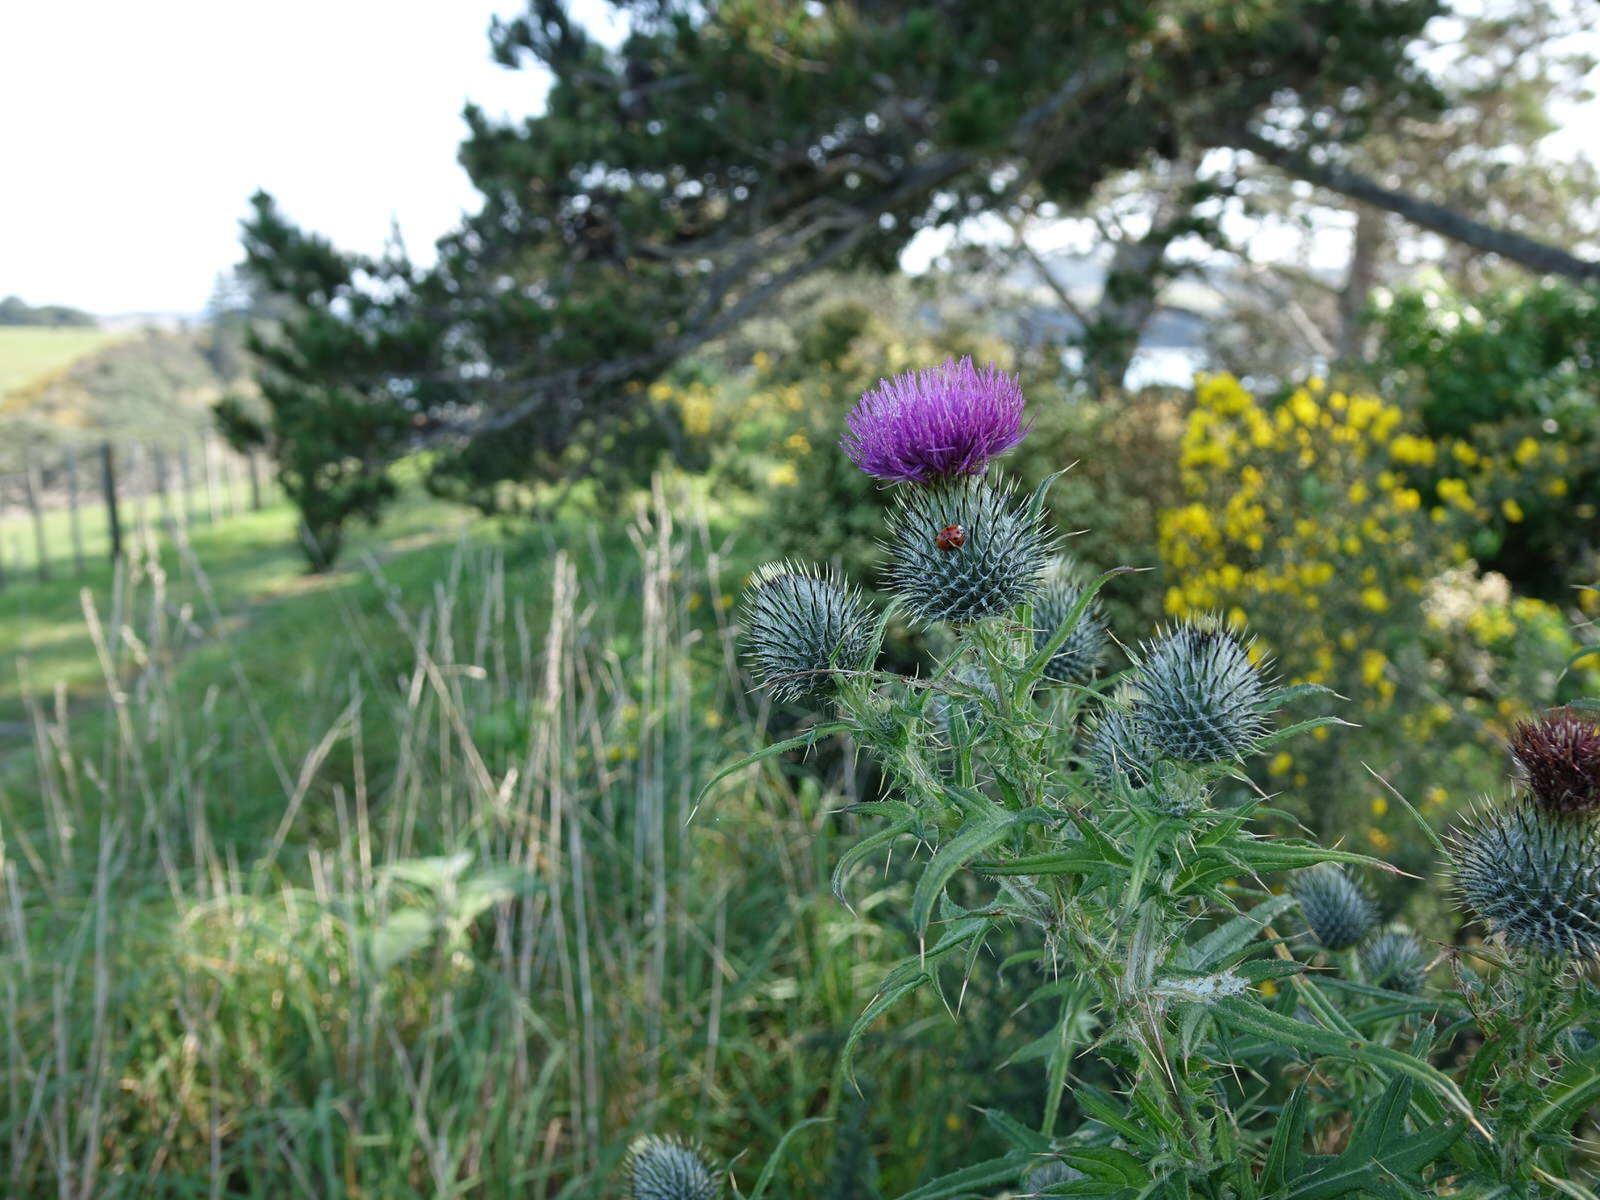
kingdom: Plantae
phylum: Tracheophyta
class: Magnoliopsida
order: Asterales
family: Asteraceae
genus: Cirsium
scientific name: Cirsium vulgare
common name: Bull thistle
